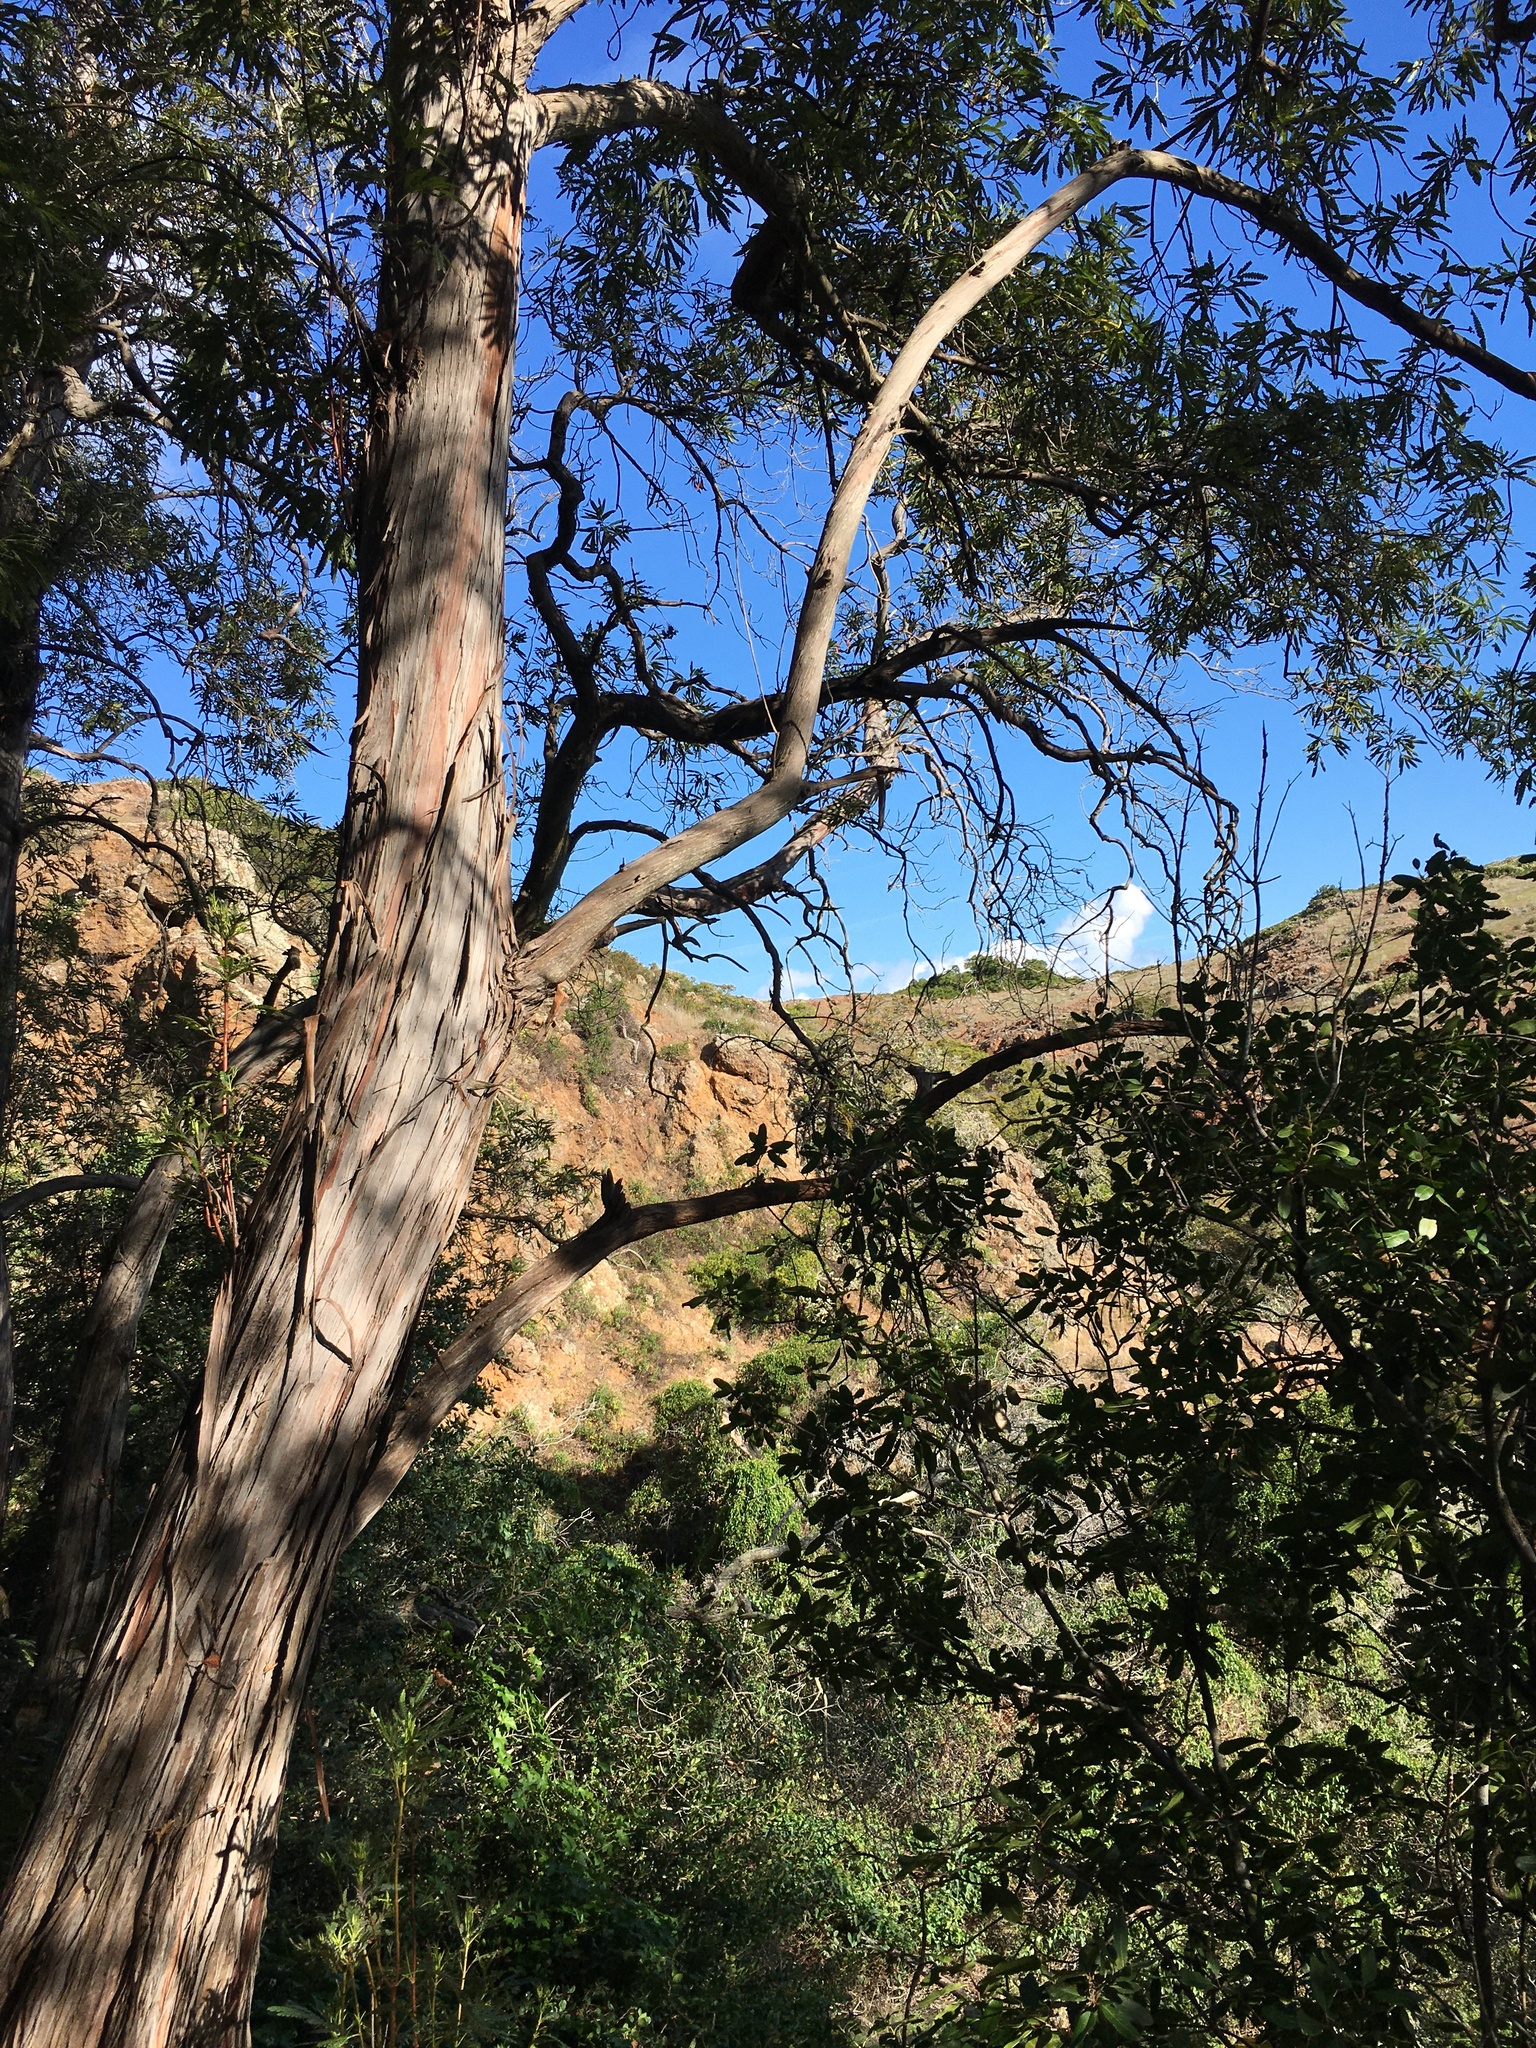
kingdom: Plantae
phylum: Tracheophyta
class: Magnoliopsida
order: Rosales
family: Rosaceae
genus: Lyonothamnus
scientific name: Lyonothamnus floribundus
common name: Catalina ironwood
